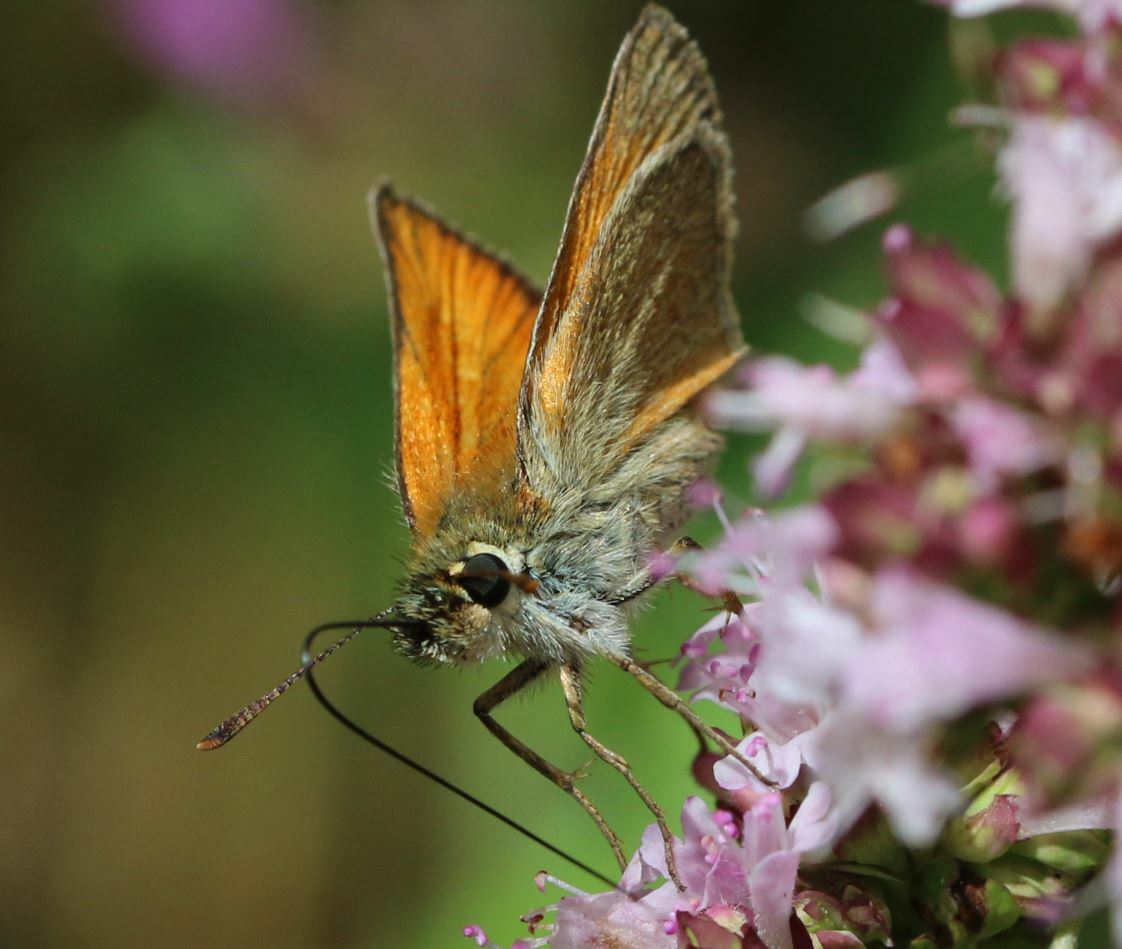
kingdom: Animalia
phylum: Arthropoda
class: Insecta
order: Lepidoptera
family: Hesperiidae
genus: Thymelicus
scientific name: Thymelicus sylvestris
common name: Small skipper
